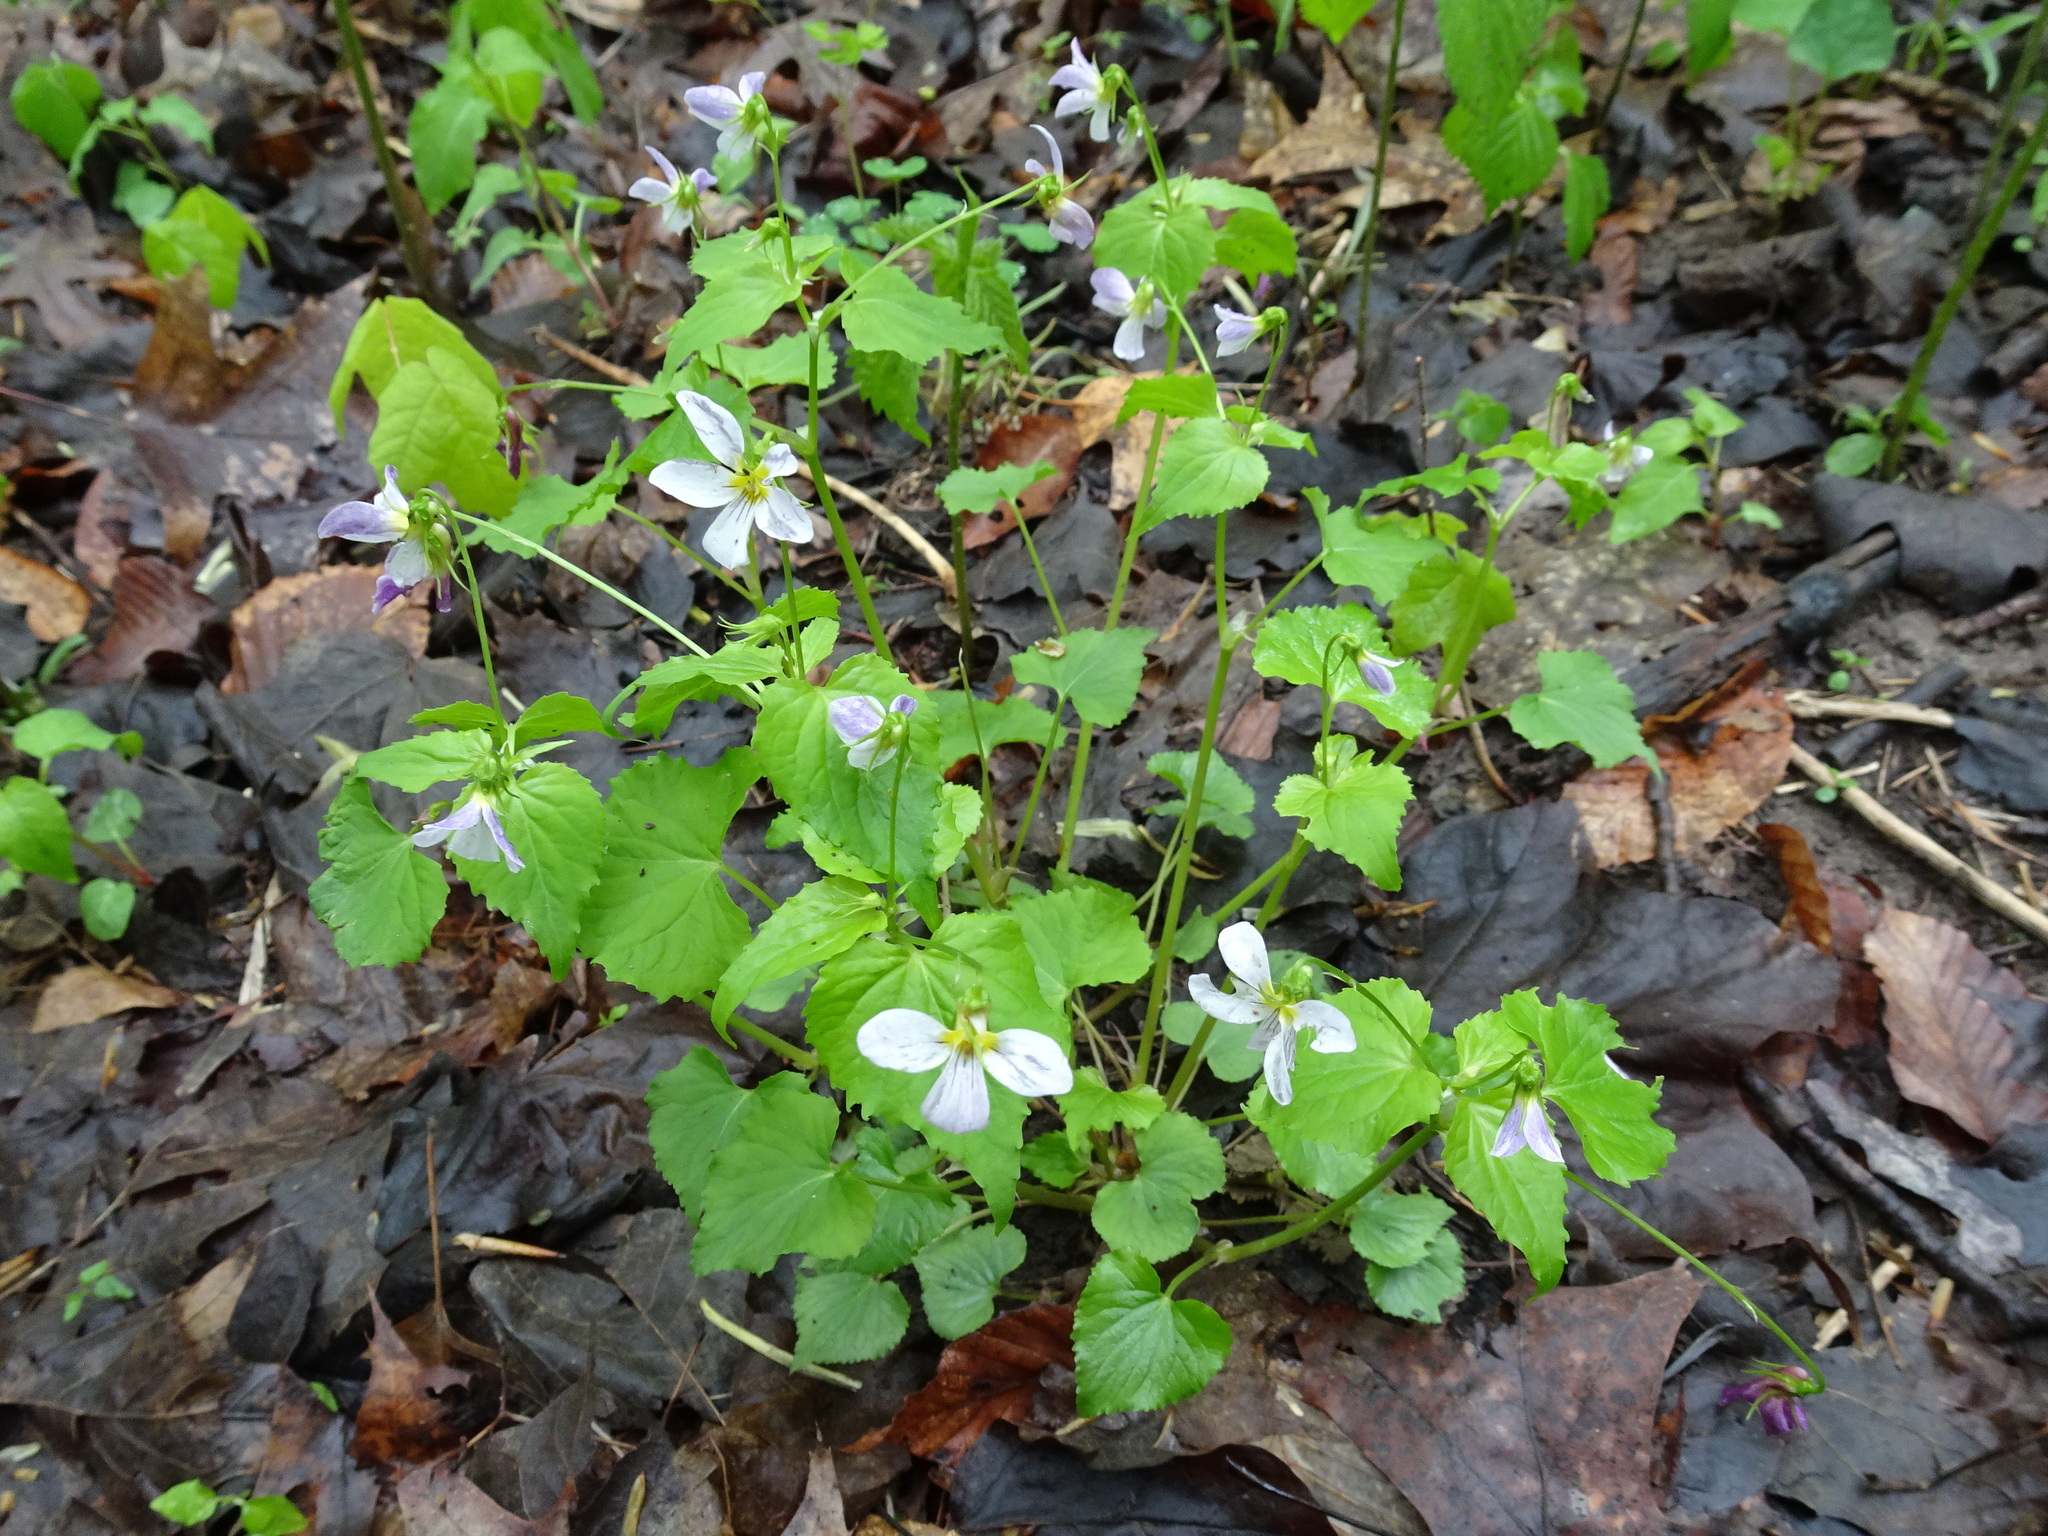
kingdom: Plantae
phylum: Tracheophyta
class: Magnoliopsida
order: Malpighiales
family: Violaceae
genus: Viola
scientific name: Viola canadensis
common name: Canada violet
